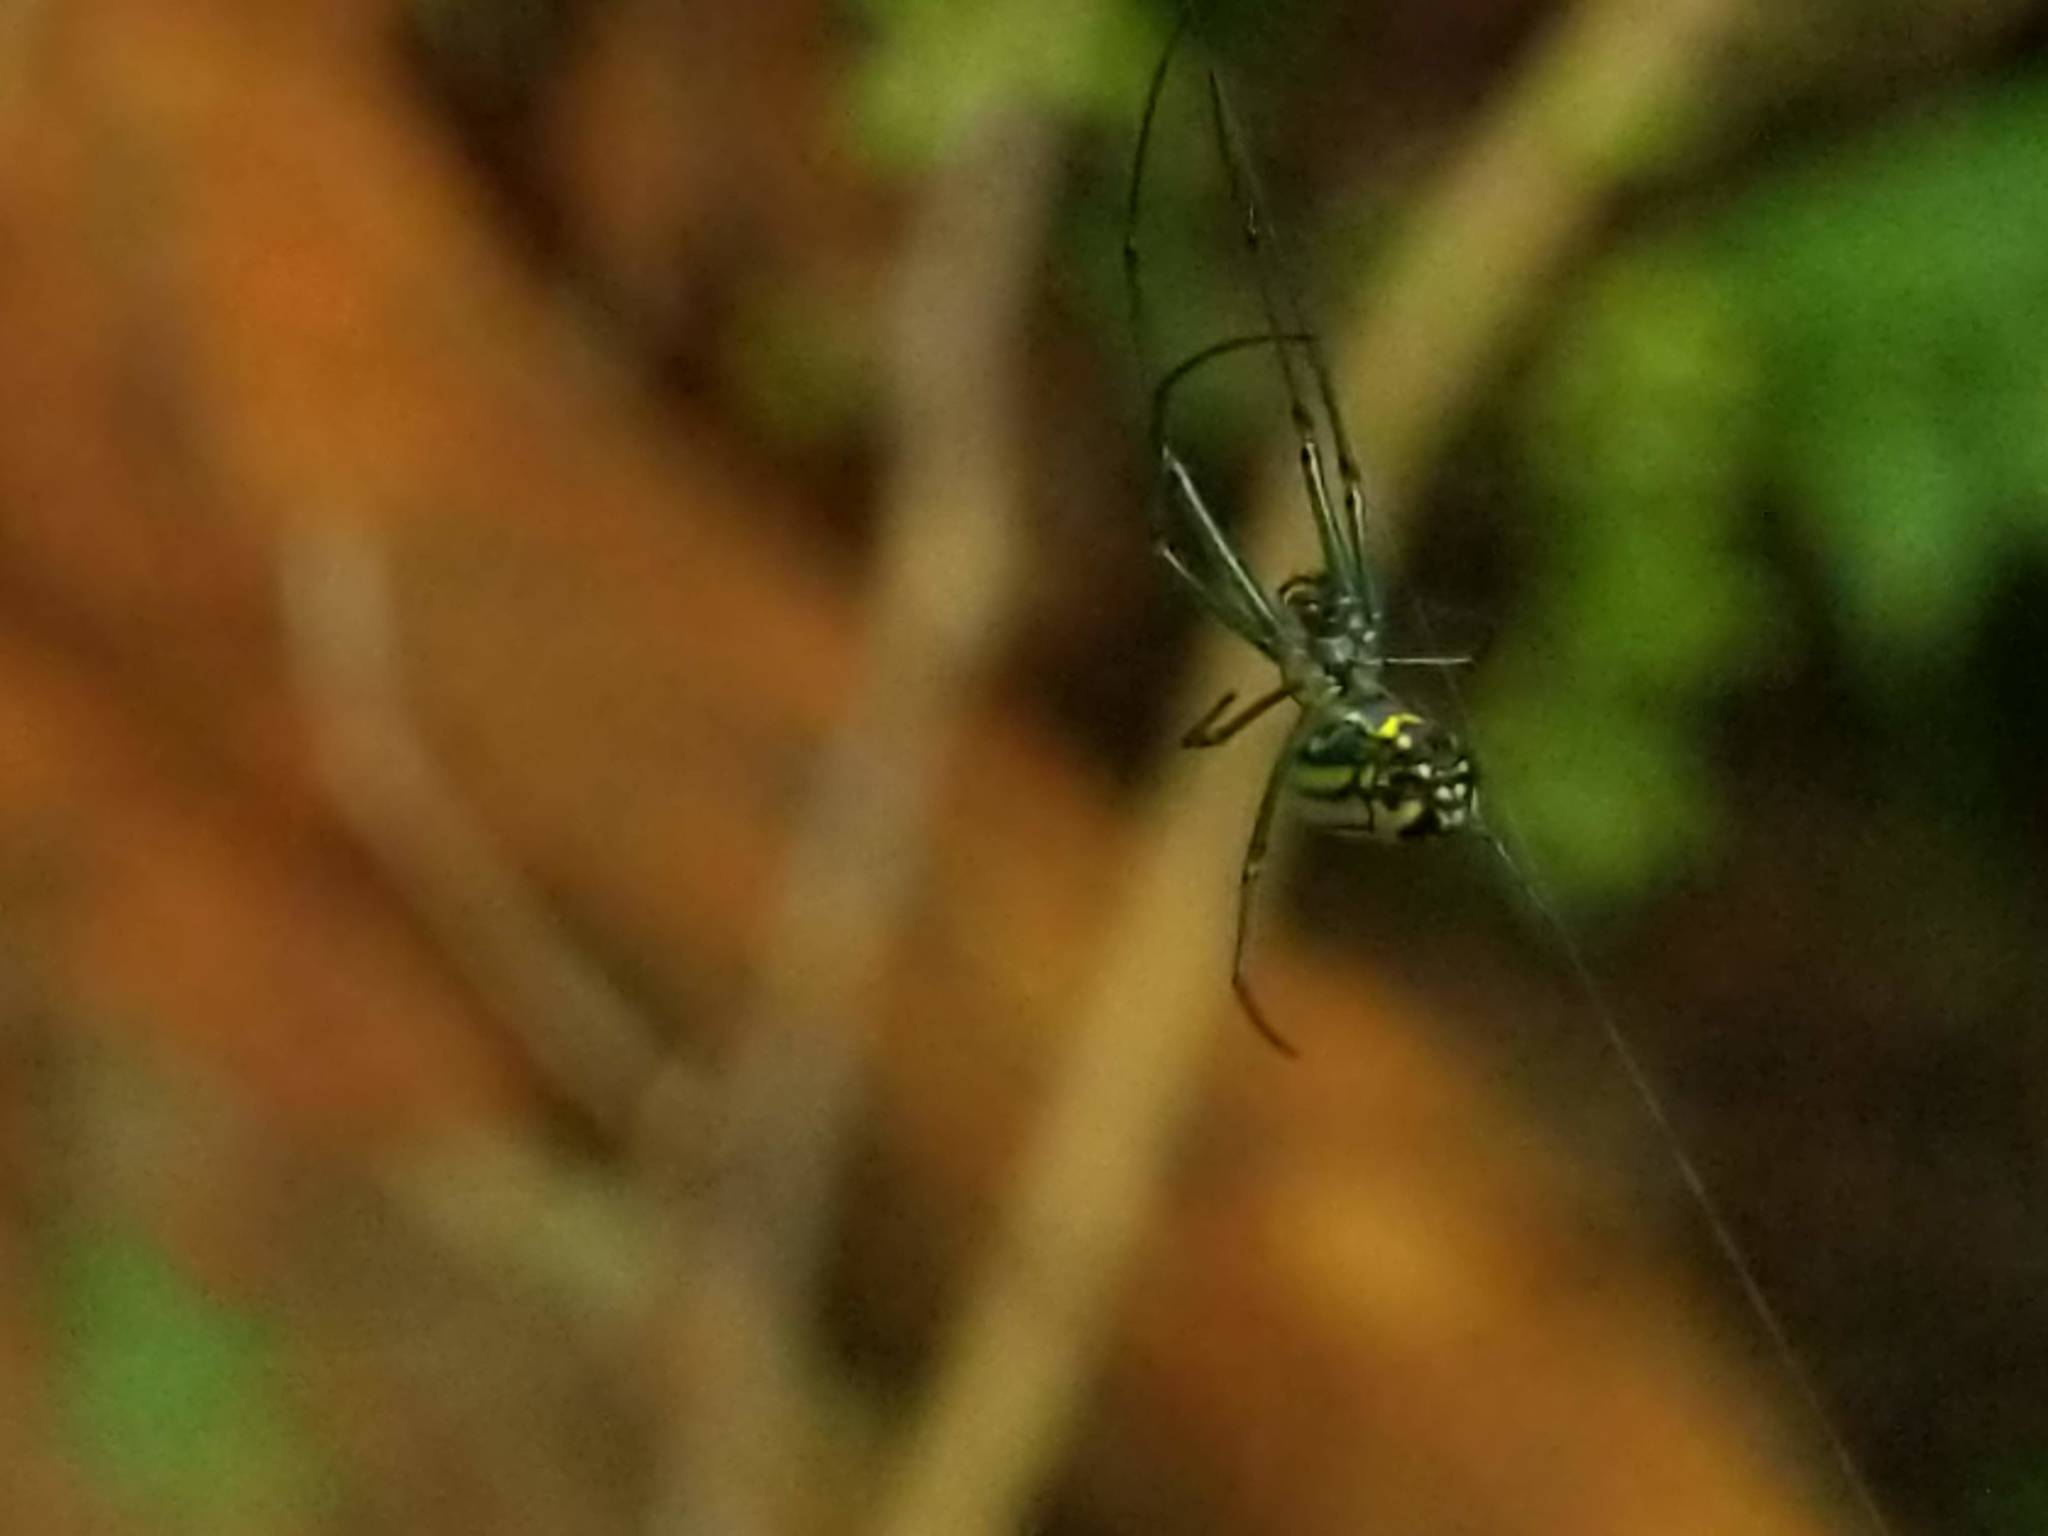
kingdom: Animalia
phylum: Arthropoda
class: Arachnida
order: Araneae
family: Tetragnathidae
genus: Leucauge
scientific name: Leucauge venusta
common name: Longjawed orb weavers
